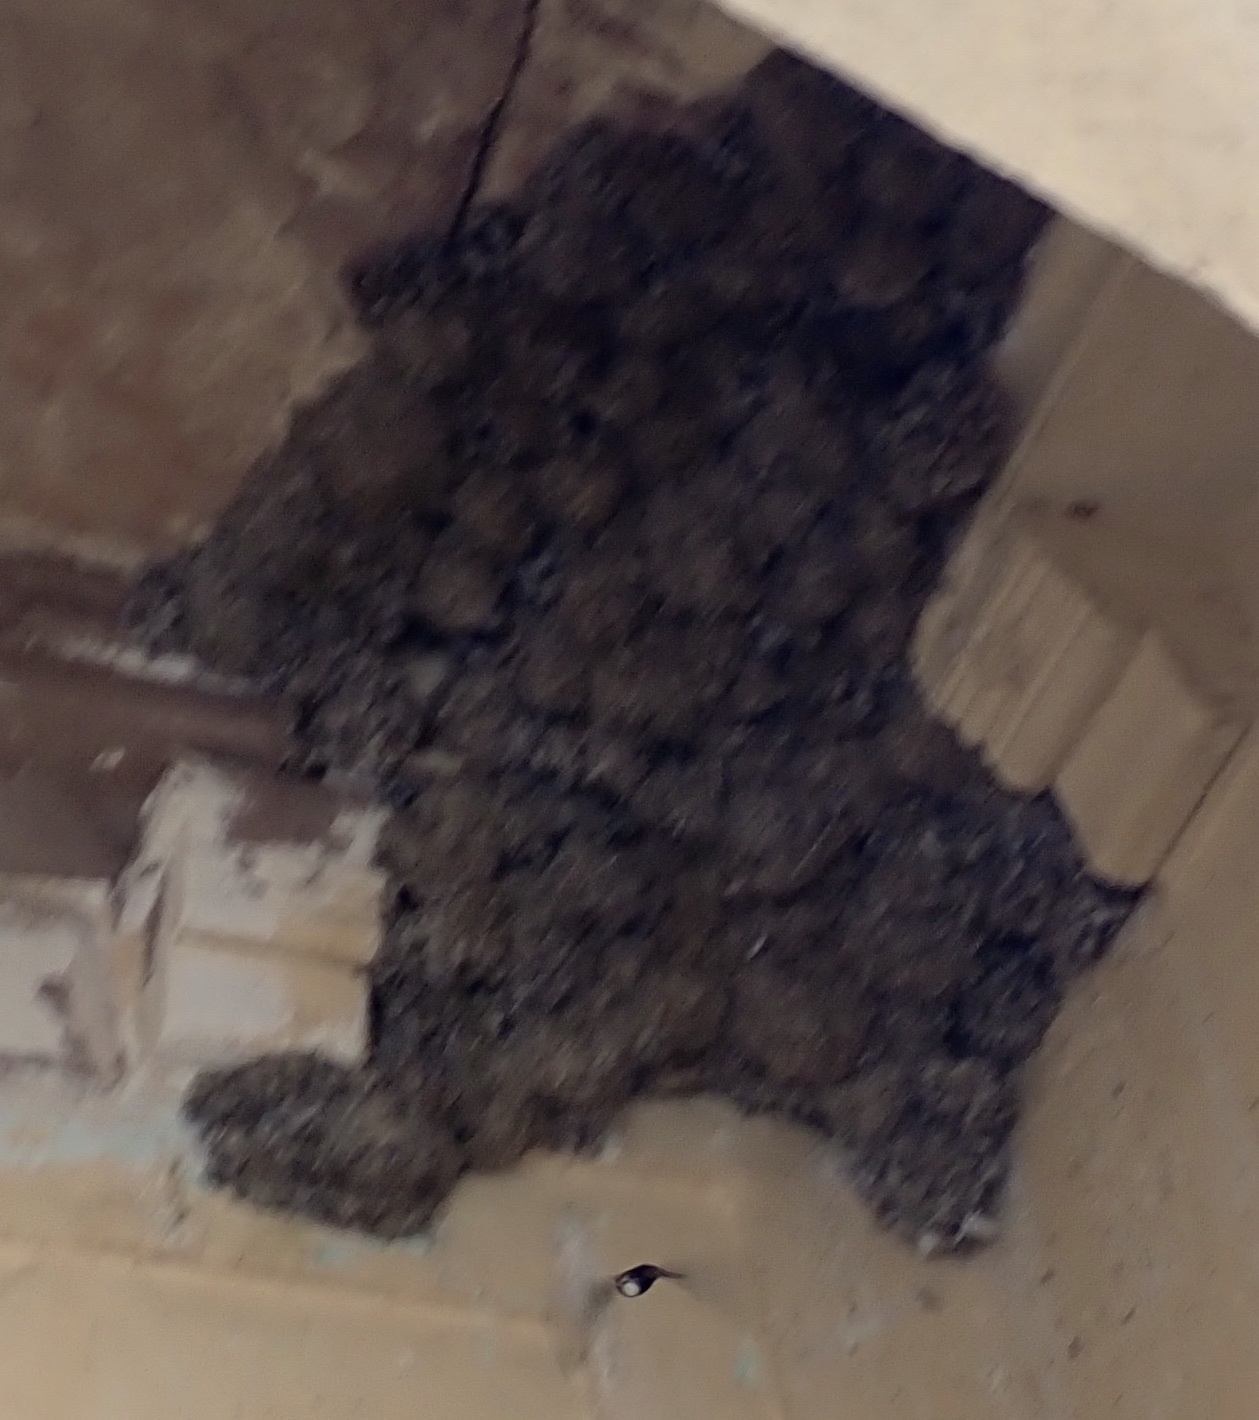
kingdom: Animalia
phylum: Chordata
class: Aves
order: Apodiformes
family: Apodidae
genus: Apus
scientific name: Apus affinis
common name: Little swift
